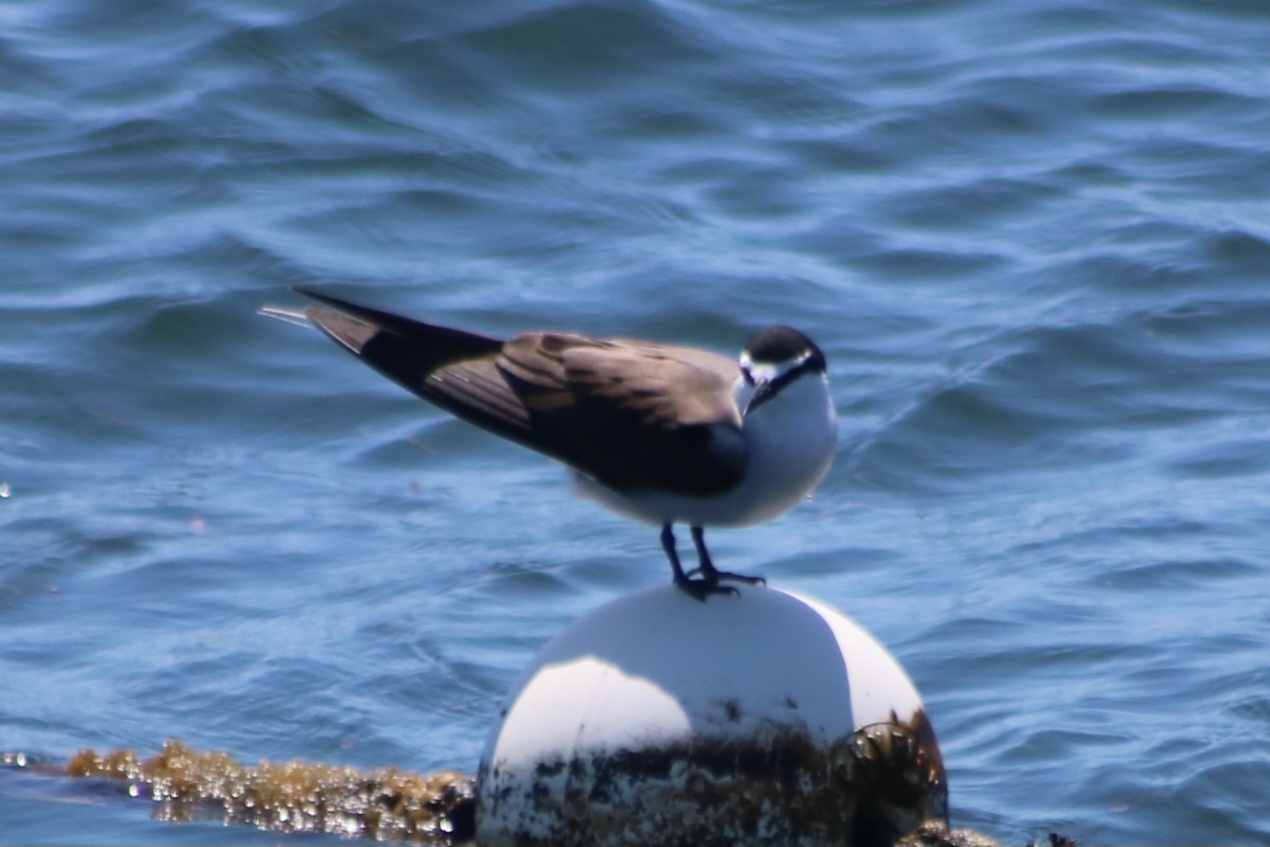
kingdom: Animalia
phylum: Chordata
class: Aves
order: Charadriiformes
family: Laridae
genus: Onychoprion
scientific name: Onychoprion anaethetus
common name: Bridled tern
